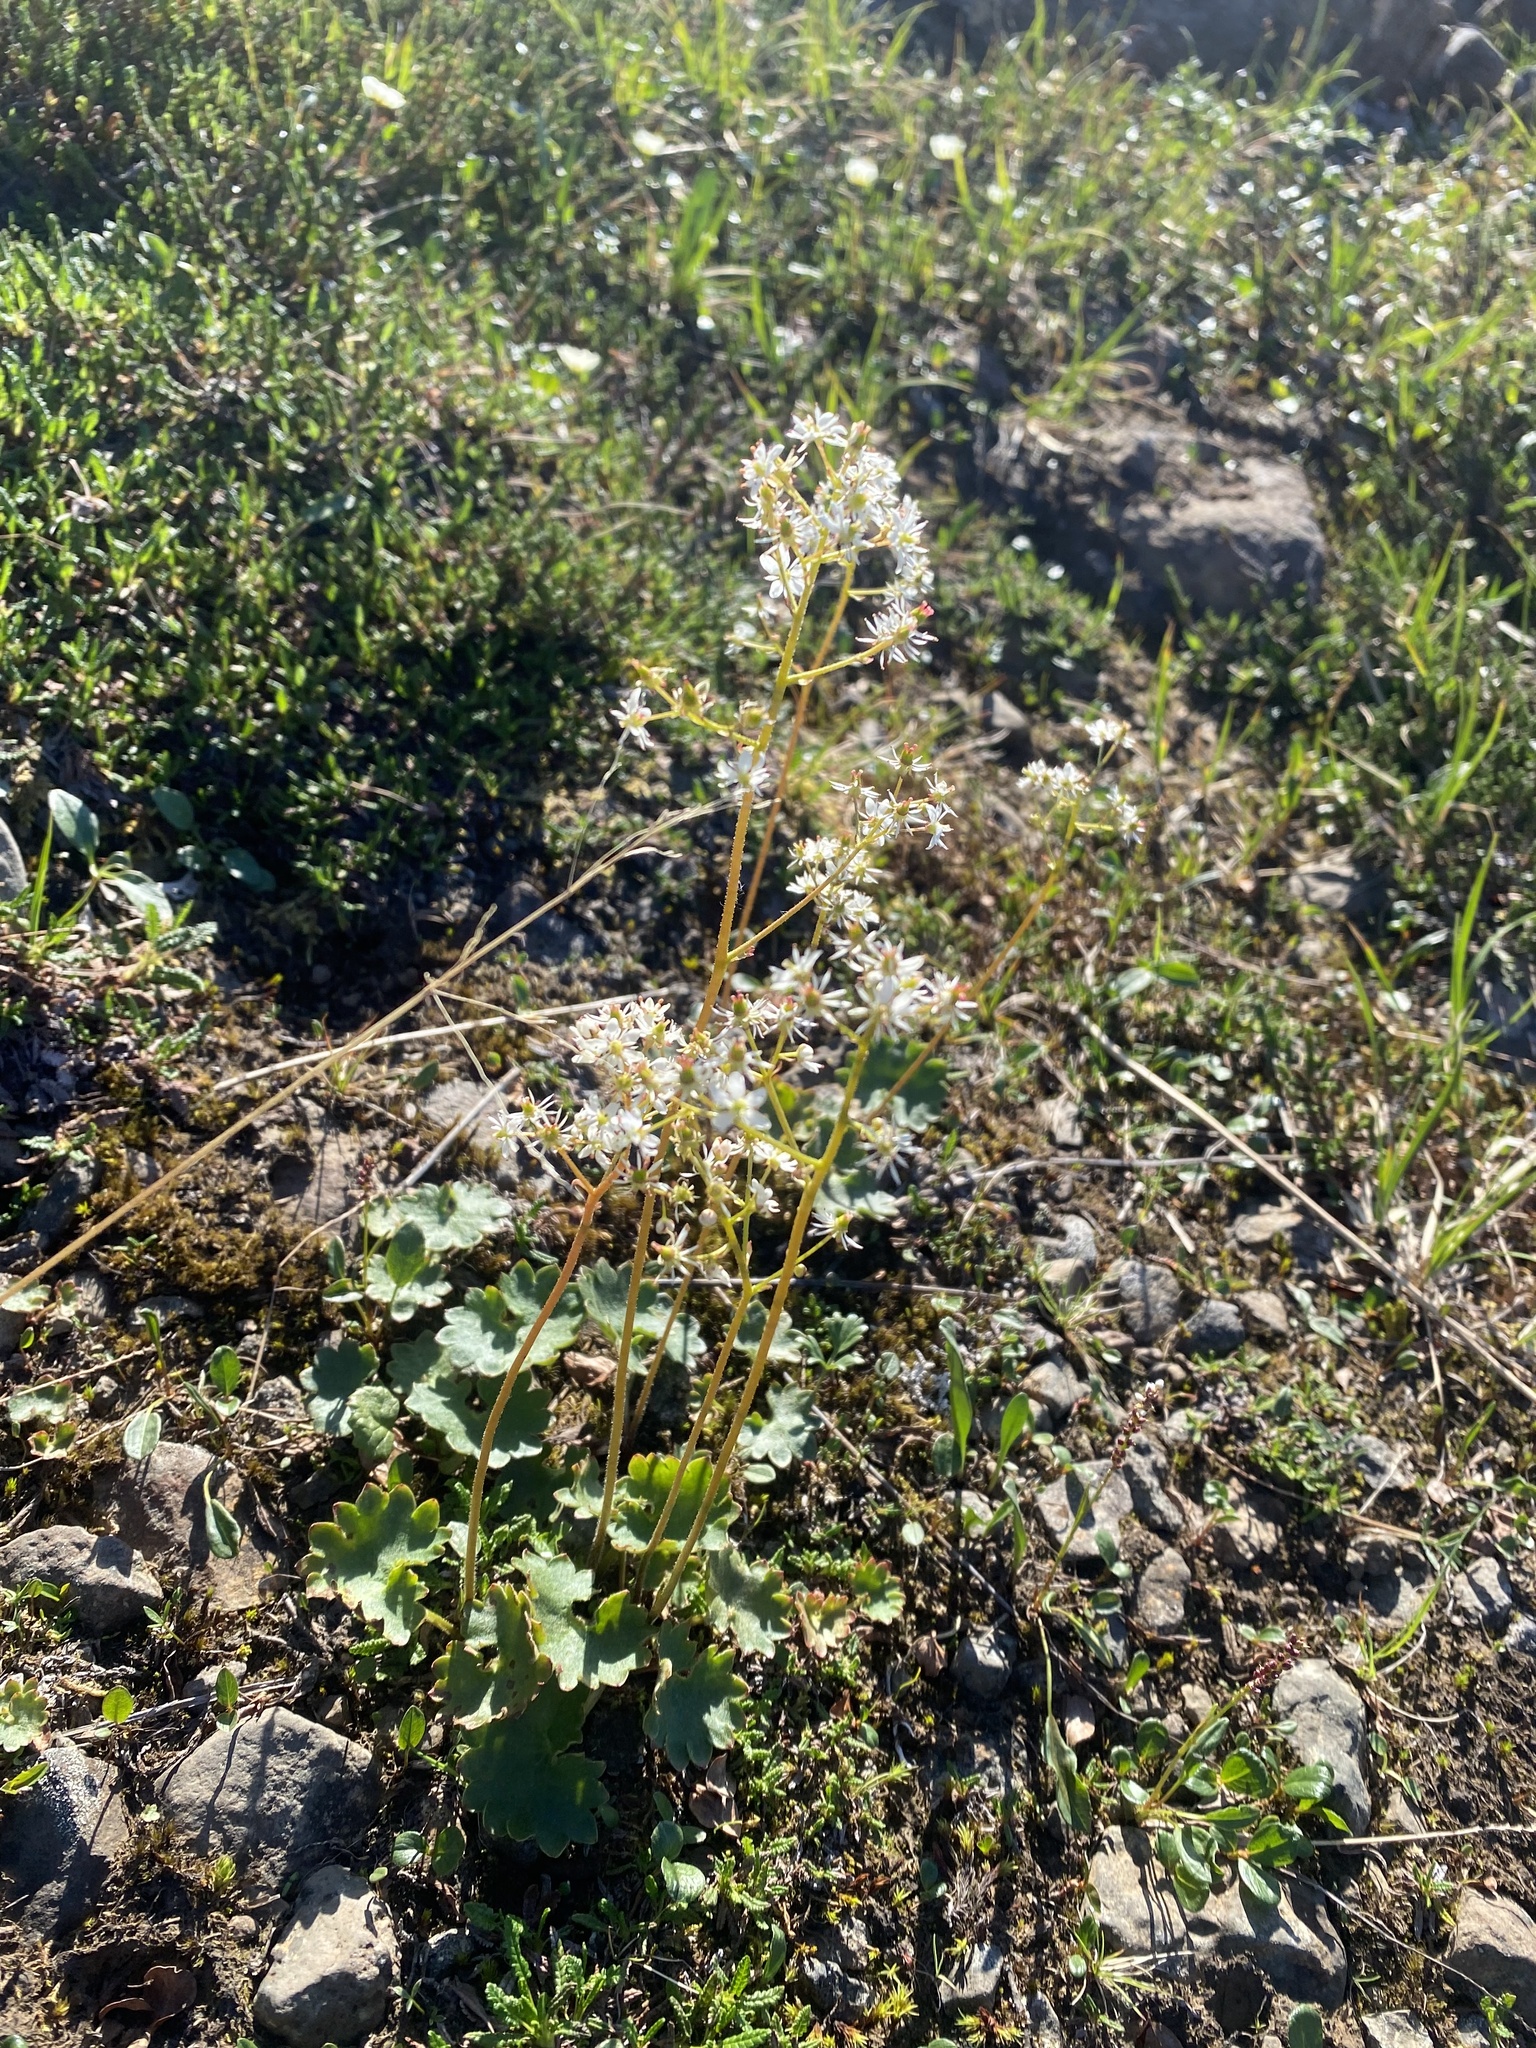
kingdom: Plantae
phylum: Tracheophyta
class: Magnoliopsida
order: Saxifragales
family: Saxifragaceae
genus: Micranthes
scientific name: Micranthes nelsoniana
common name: Nelson's saxifrage
